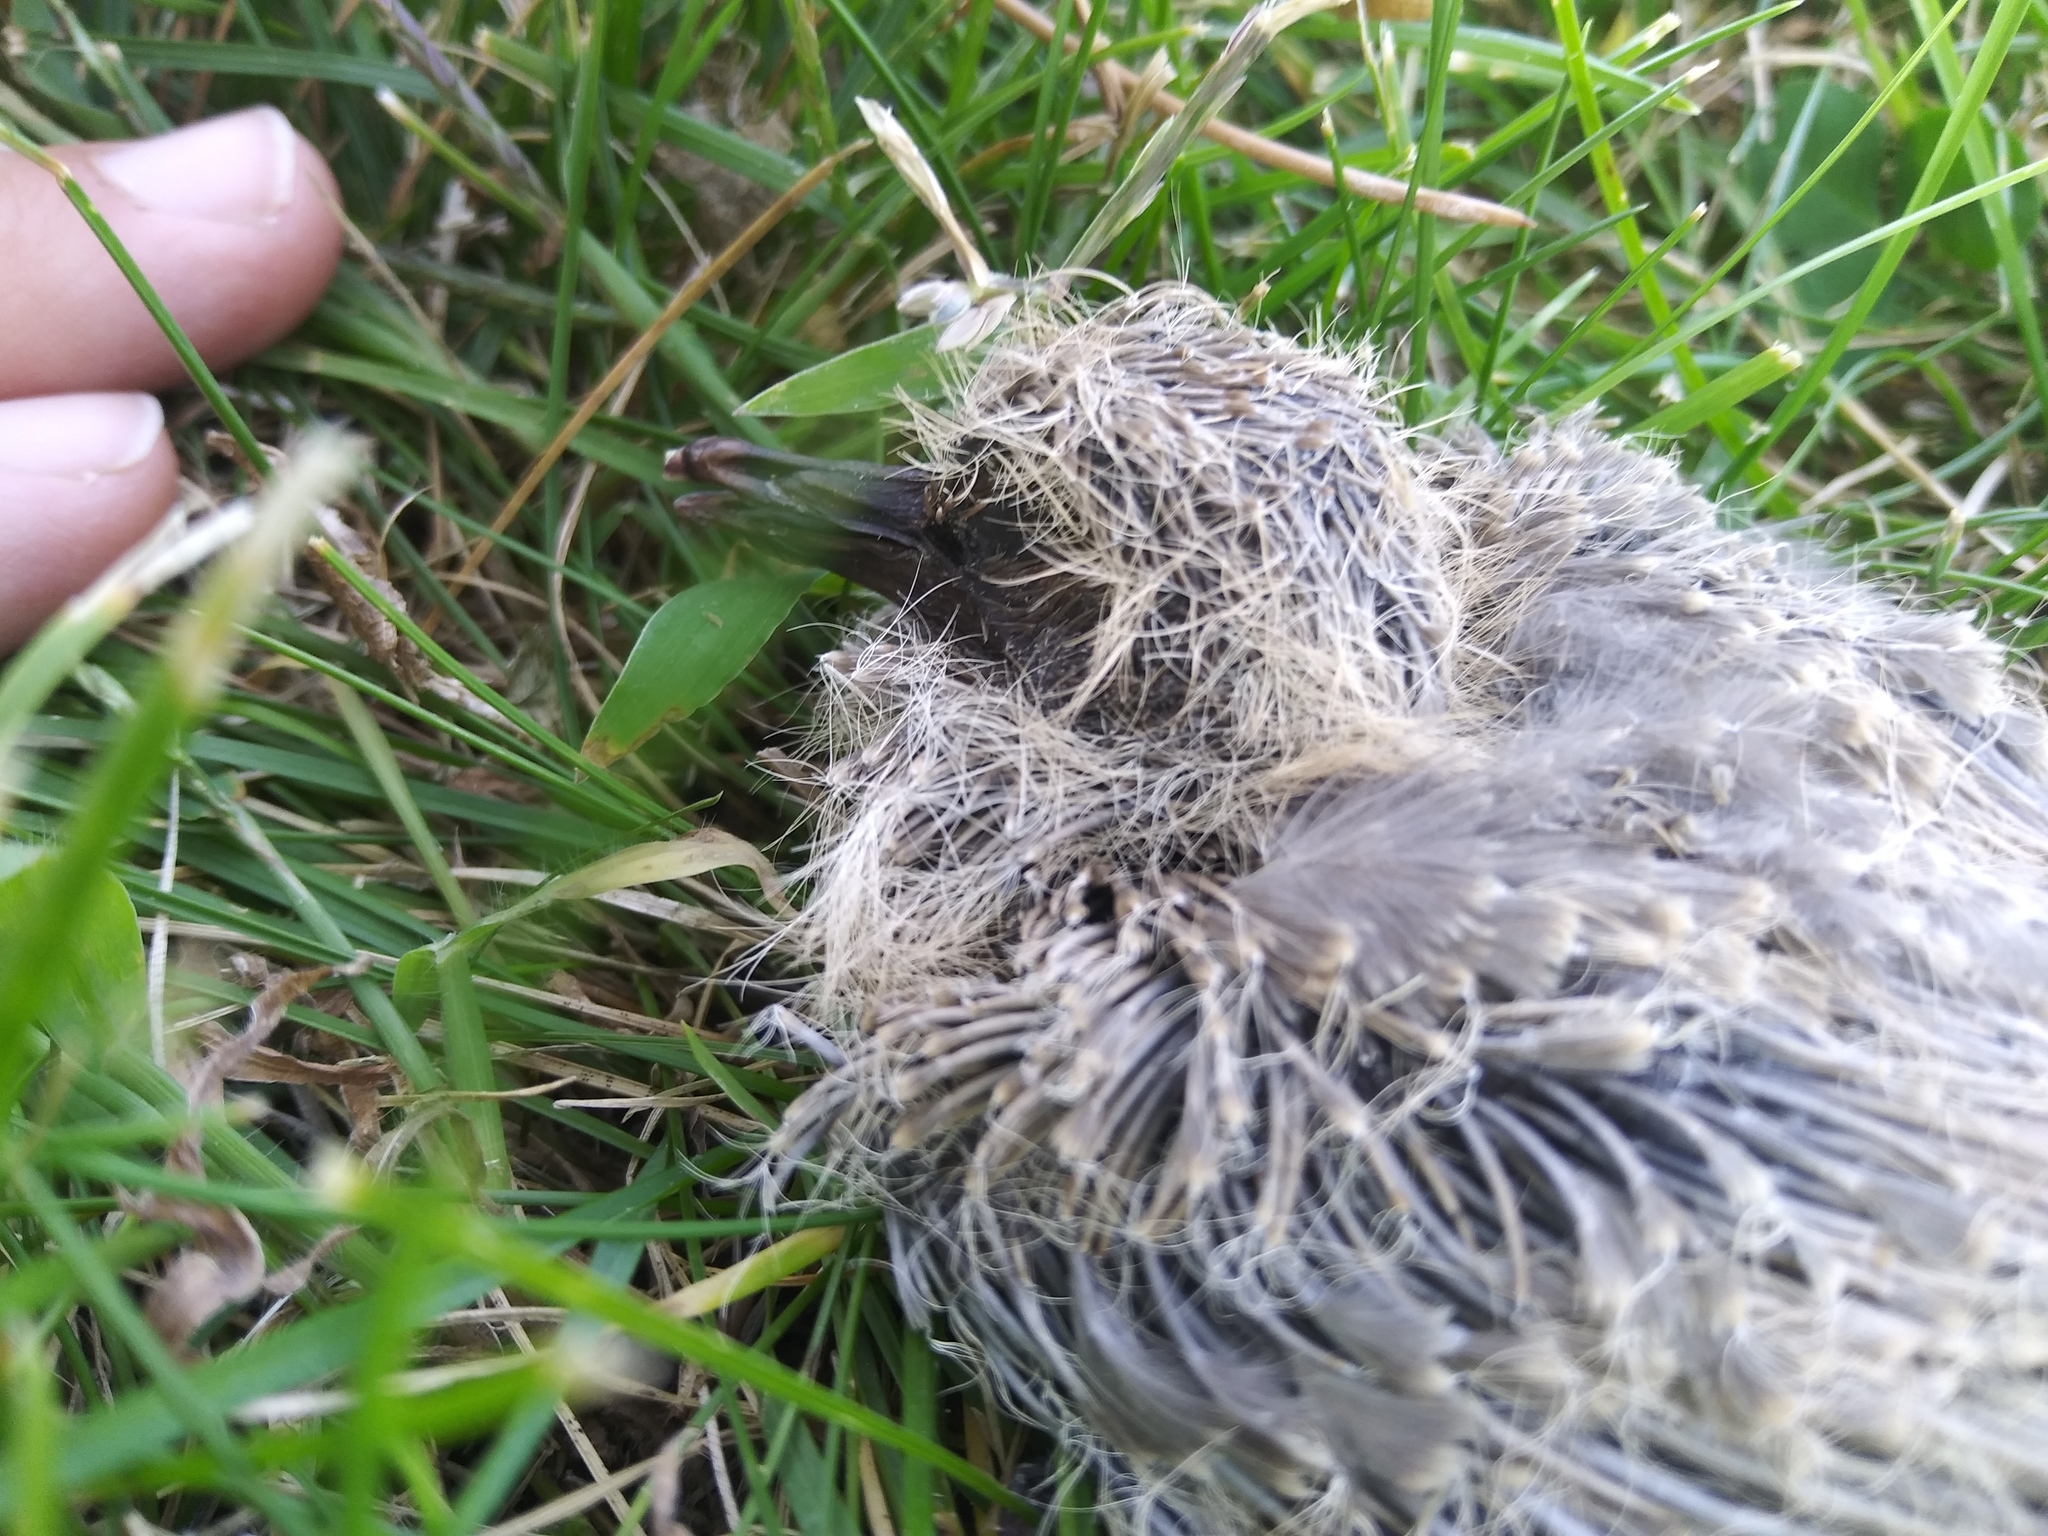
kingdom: Animalia
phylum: Chordata
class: Aves
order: Columbiformes
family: Columbidae
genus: Streptopelia
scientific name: Streptopelia decaocto
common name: Eurasian collared dove
